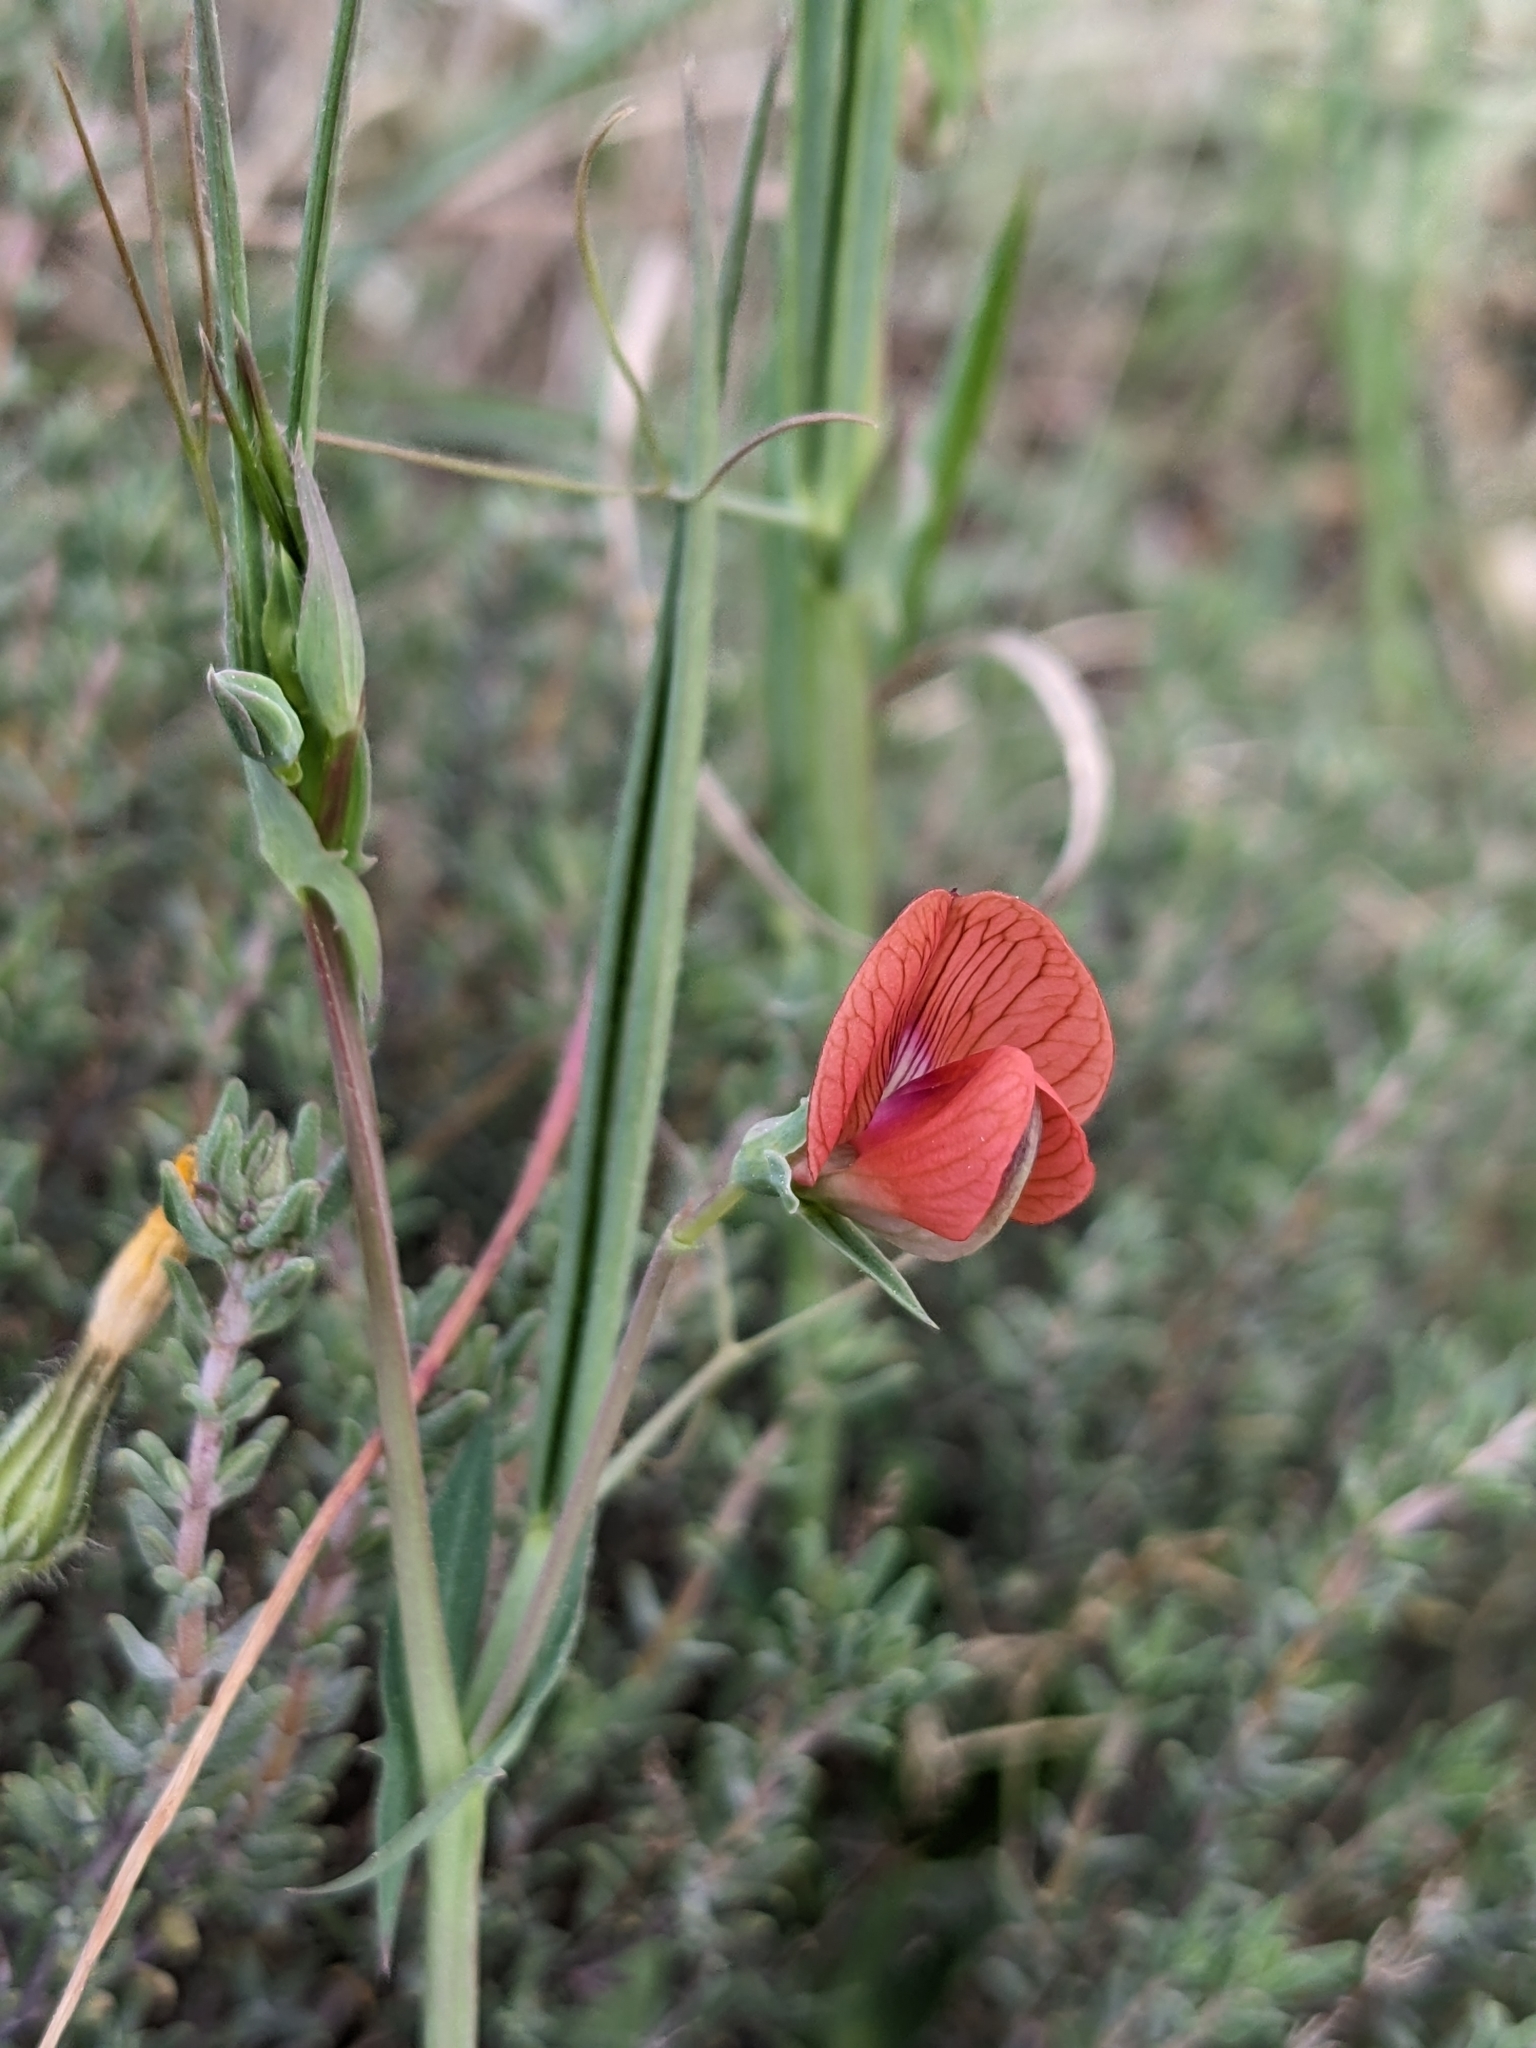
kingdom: Plantae
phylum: Tracheophyta
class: Magnoliopsida
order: Fabales
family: Fabaceae
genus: Lathyrus
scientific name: Lathyrus cicera
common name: Red vetchling
